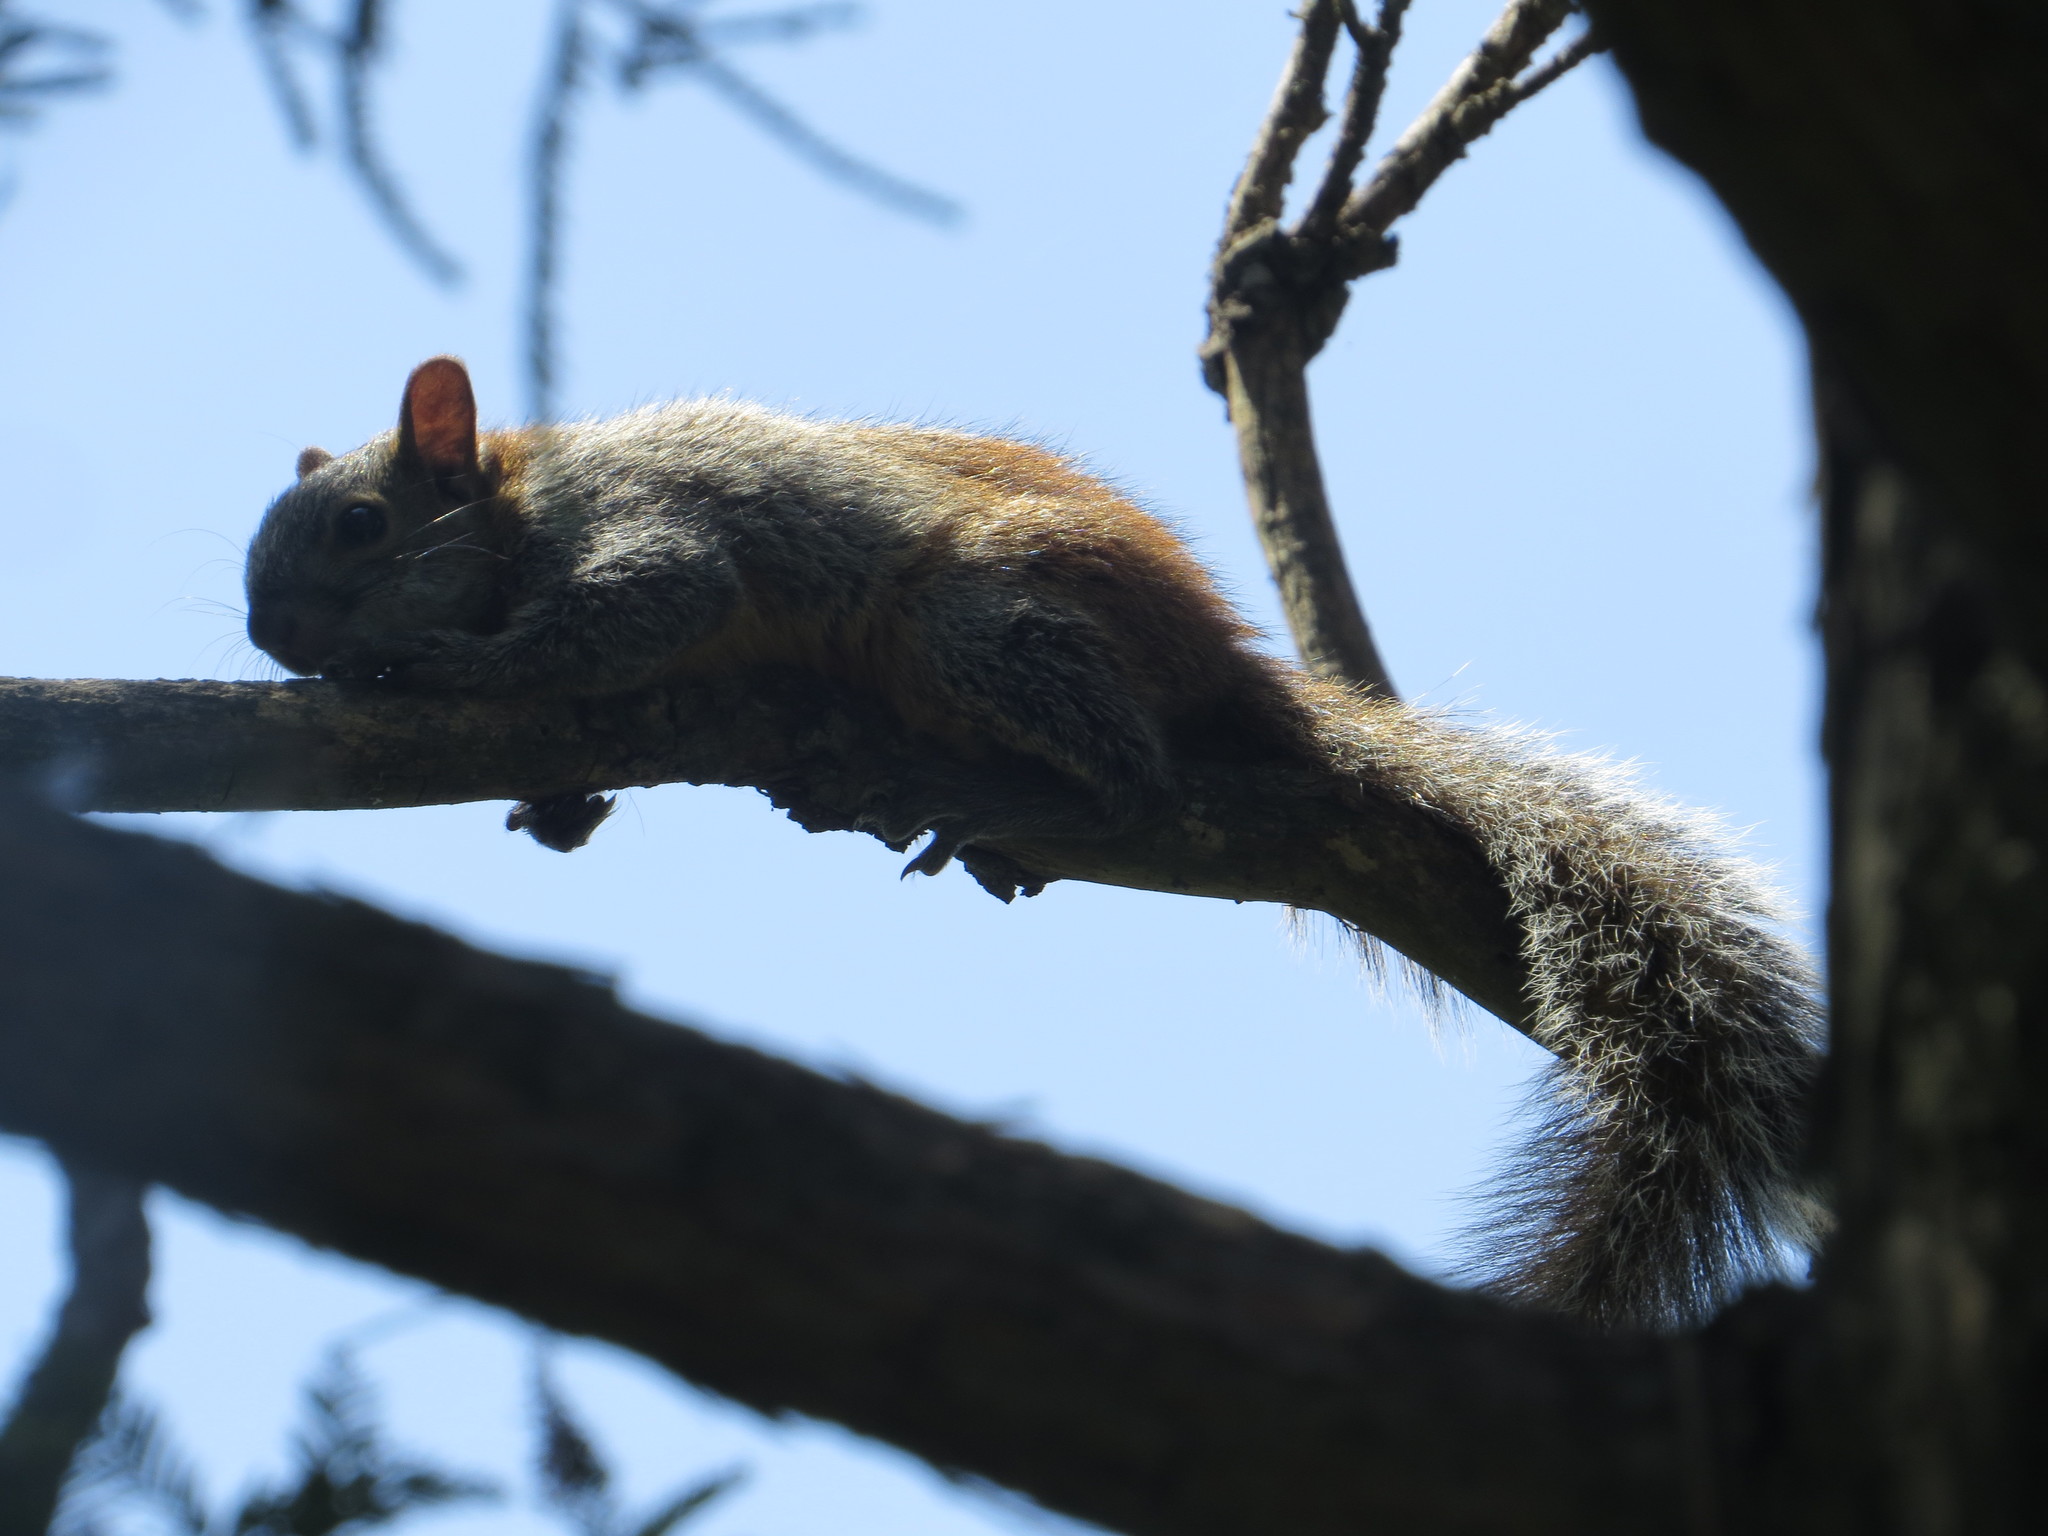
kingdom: Animalia
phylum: Chordata
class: Mammalia
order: Rodentia
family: Sciuridae
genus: Sciurus
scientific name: Sciurus aureogaster
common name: Red-bellied squirrel
